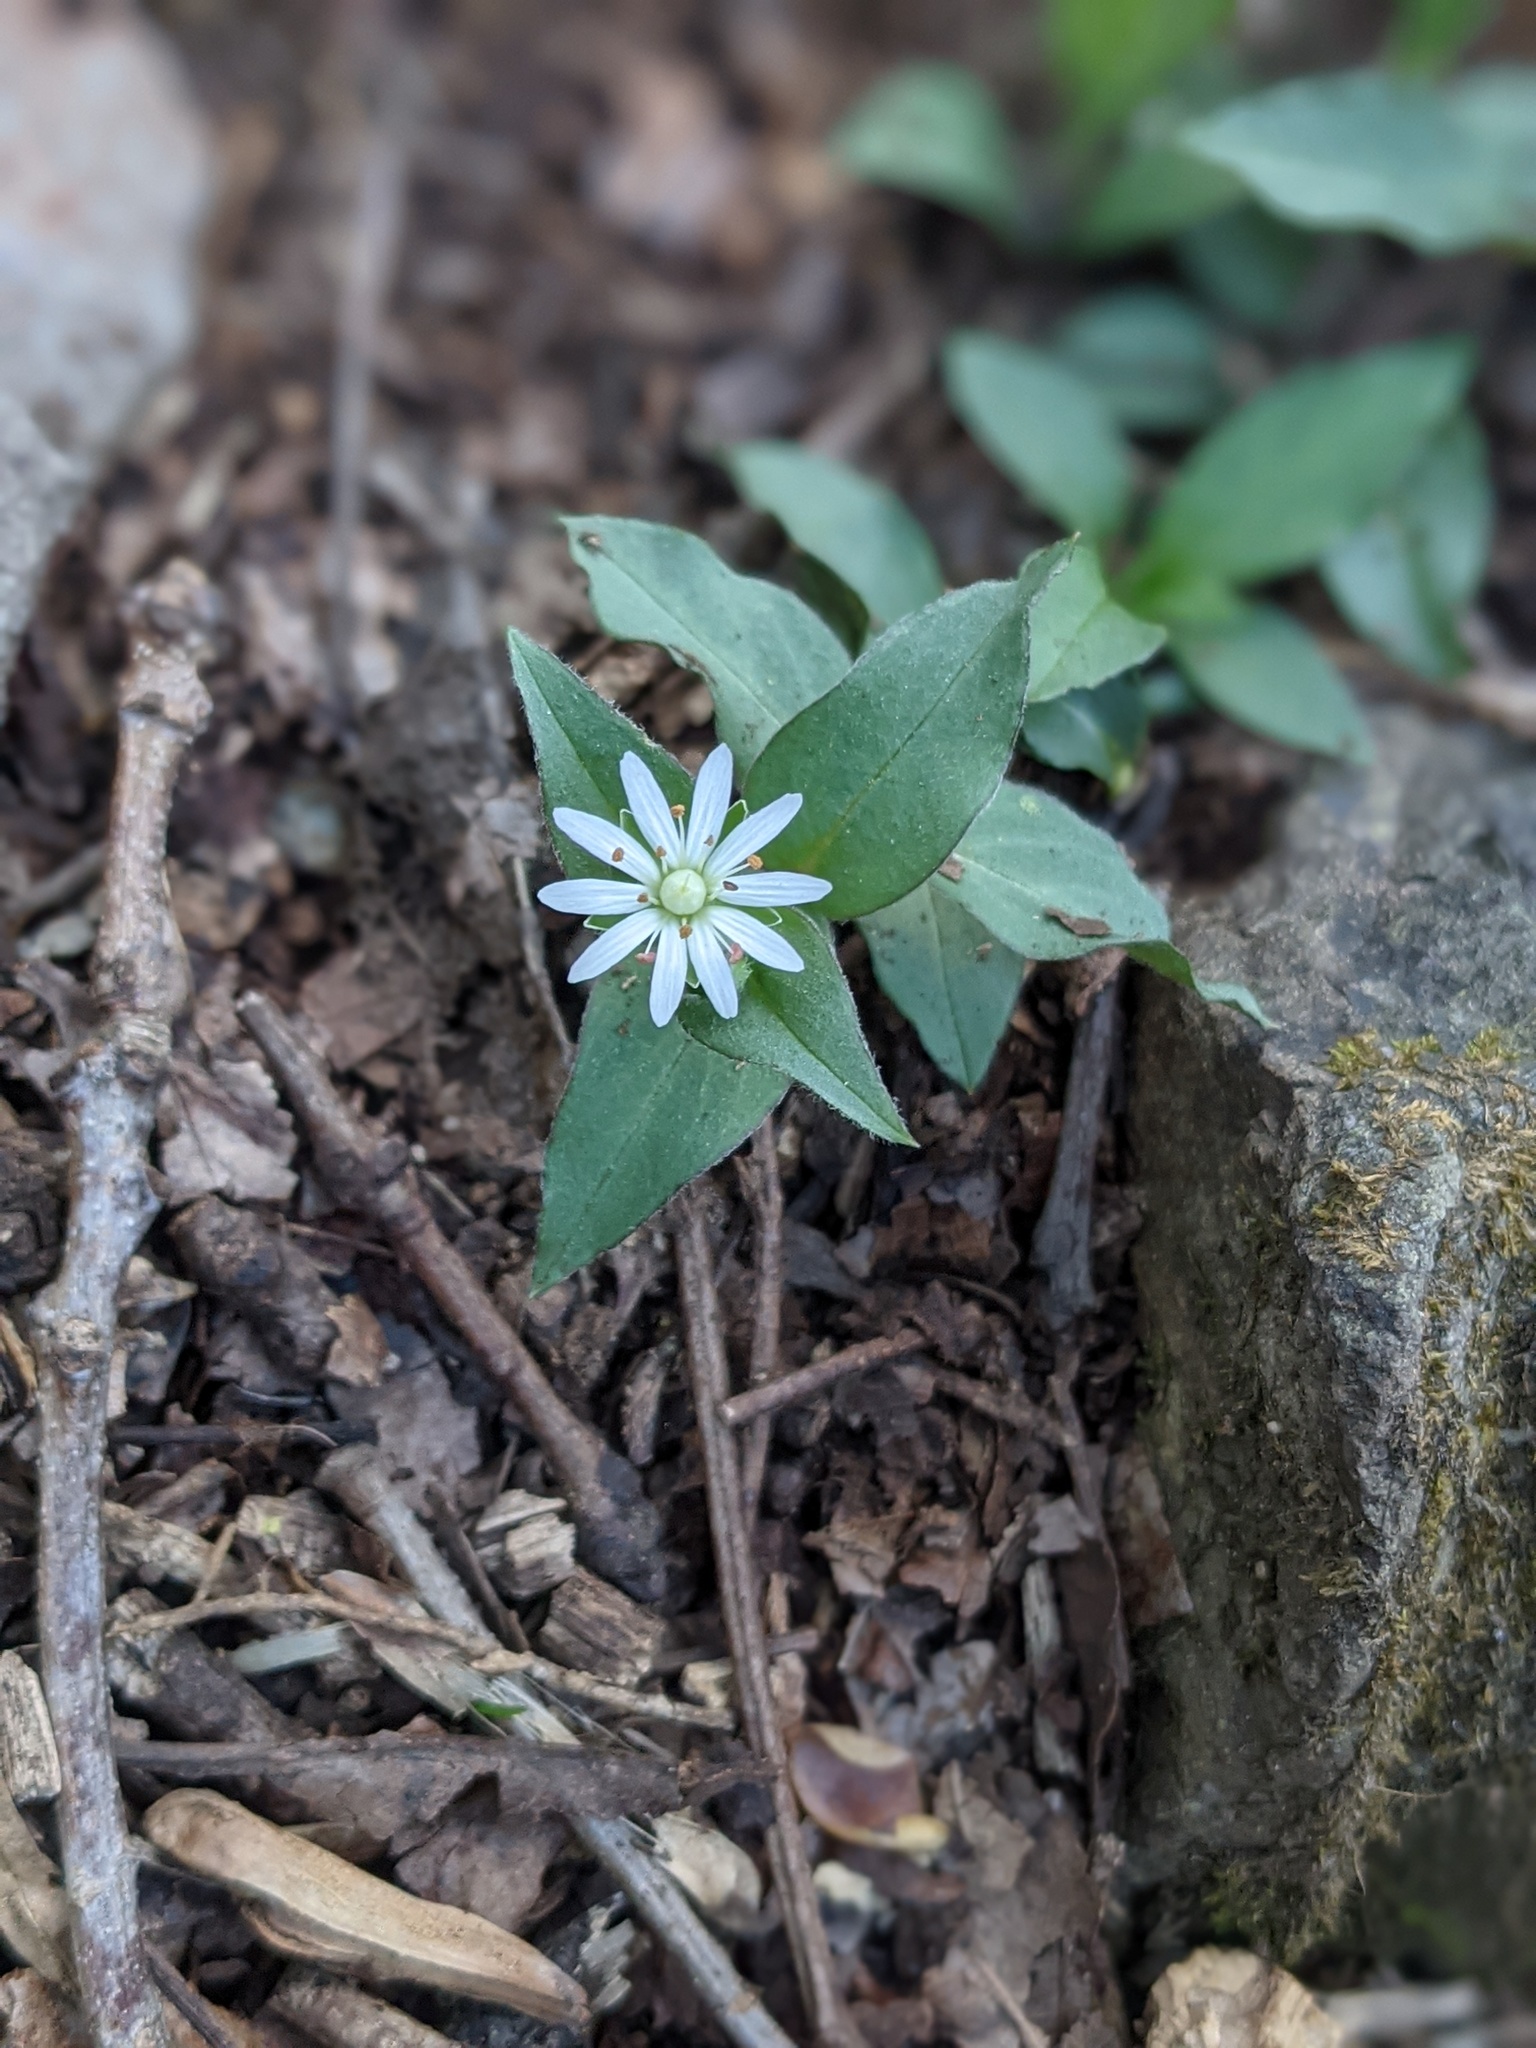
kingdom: Plantae
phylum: Tracheophyta
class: Magnoliopsida
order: Caryophyllales
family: Caryophyllaceae
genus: Stellaria
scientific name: Stellaria pubera
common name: Star chickweed
